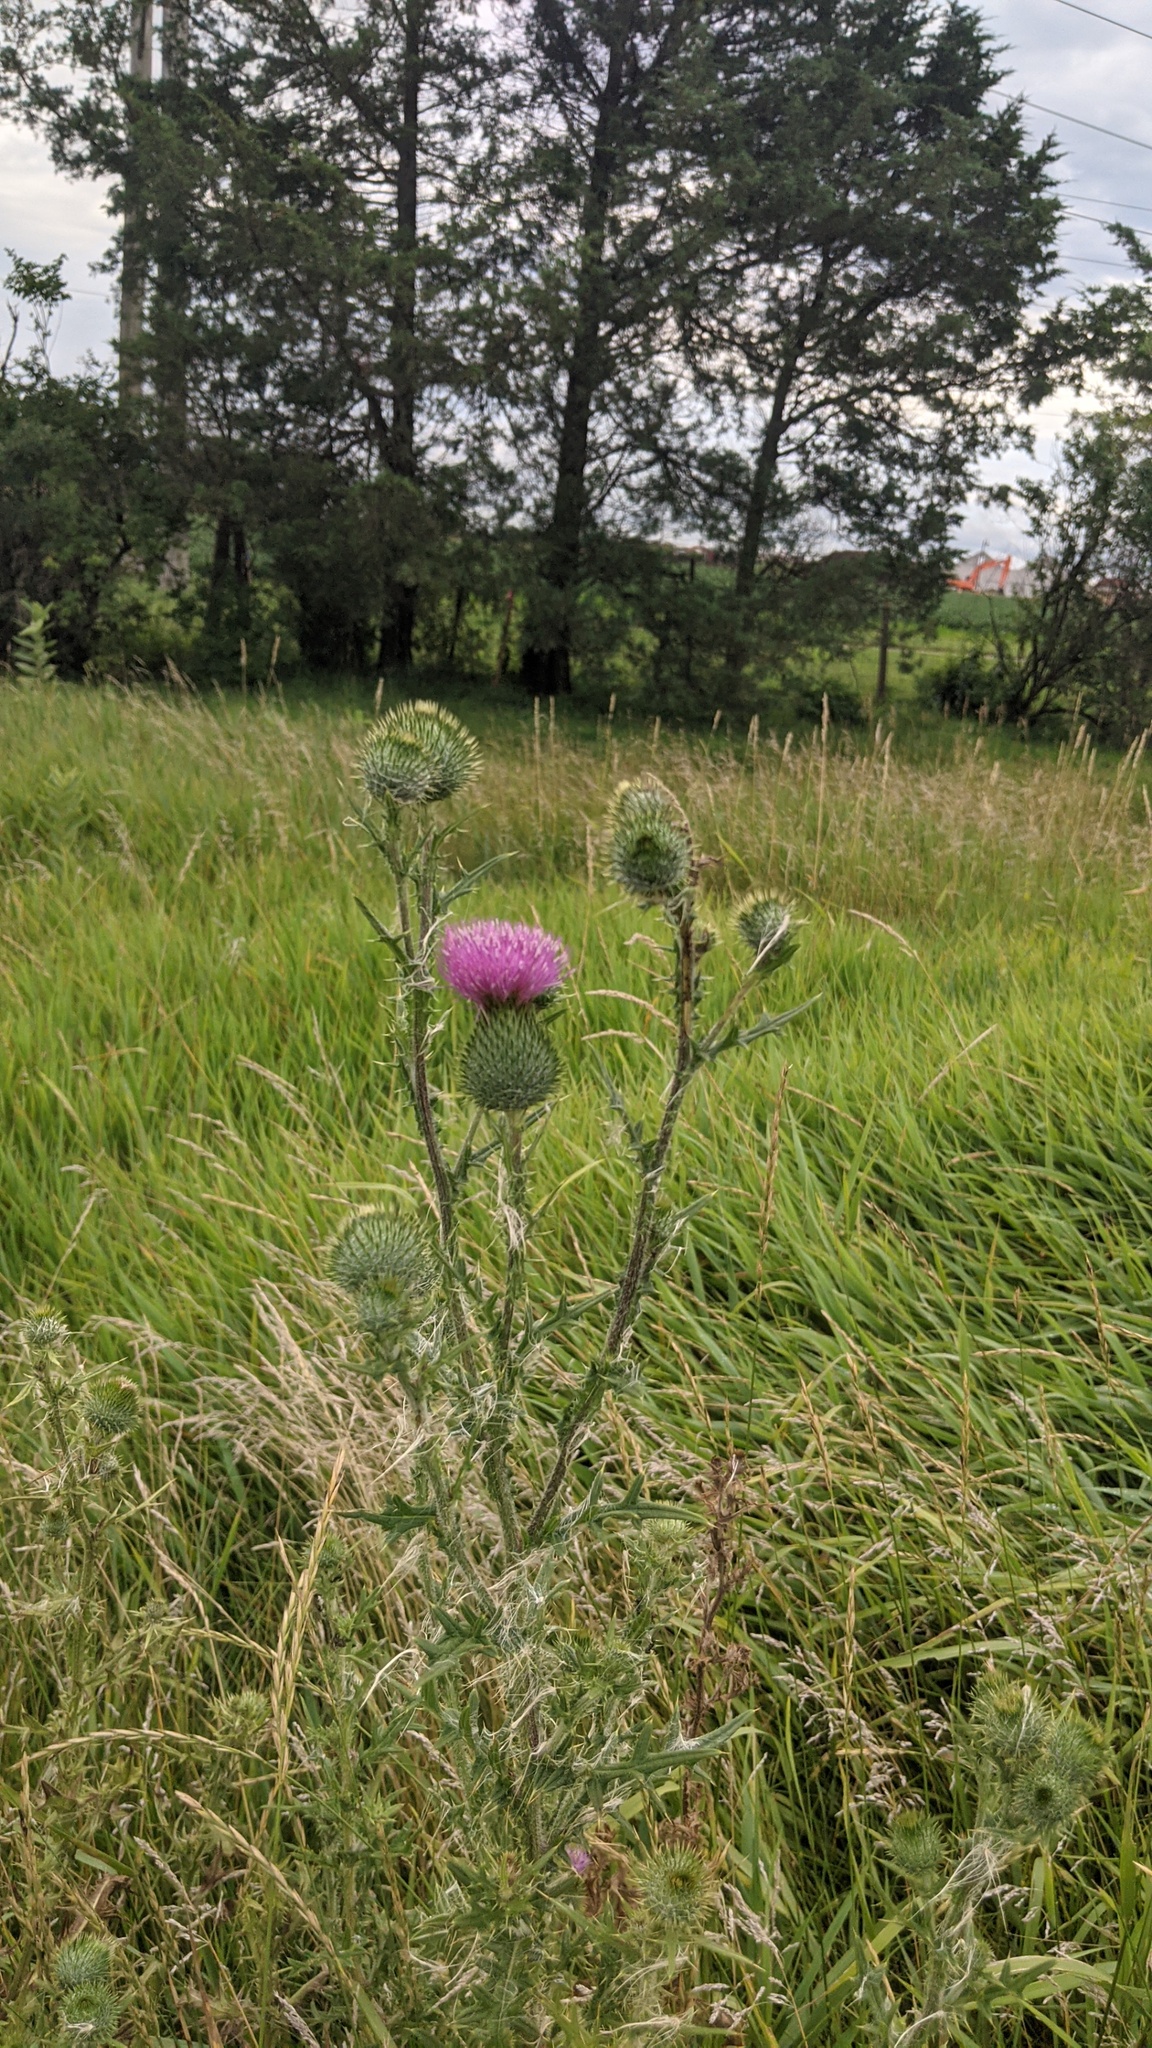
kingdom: Plantae
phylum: Tracheophyta
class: Magnoliopsida
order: Asterales
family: Asteraceae
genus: Cirsium
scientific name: Cirsium vulgare
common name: Bull thistle
